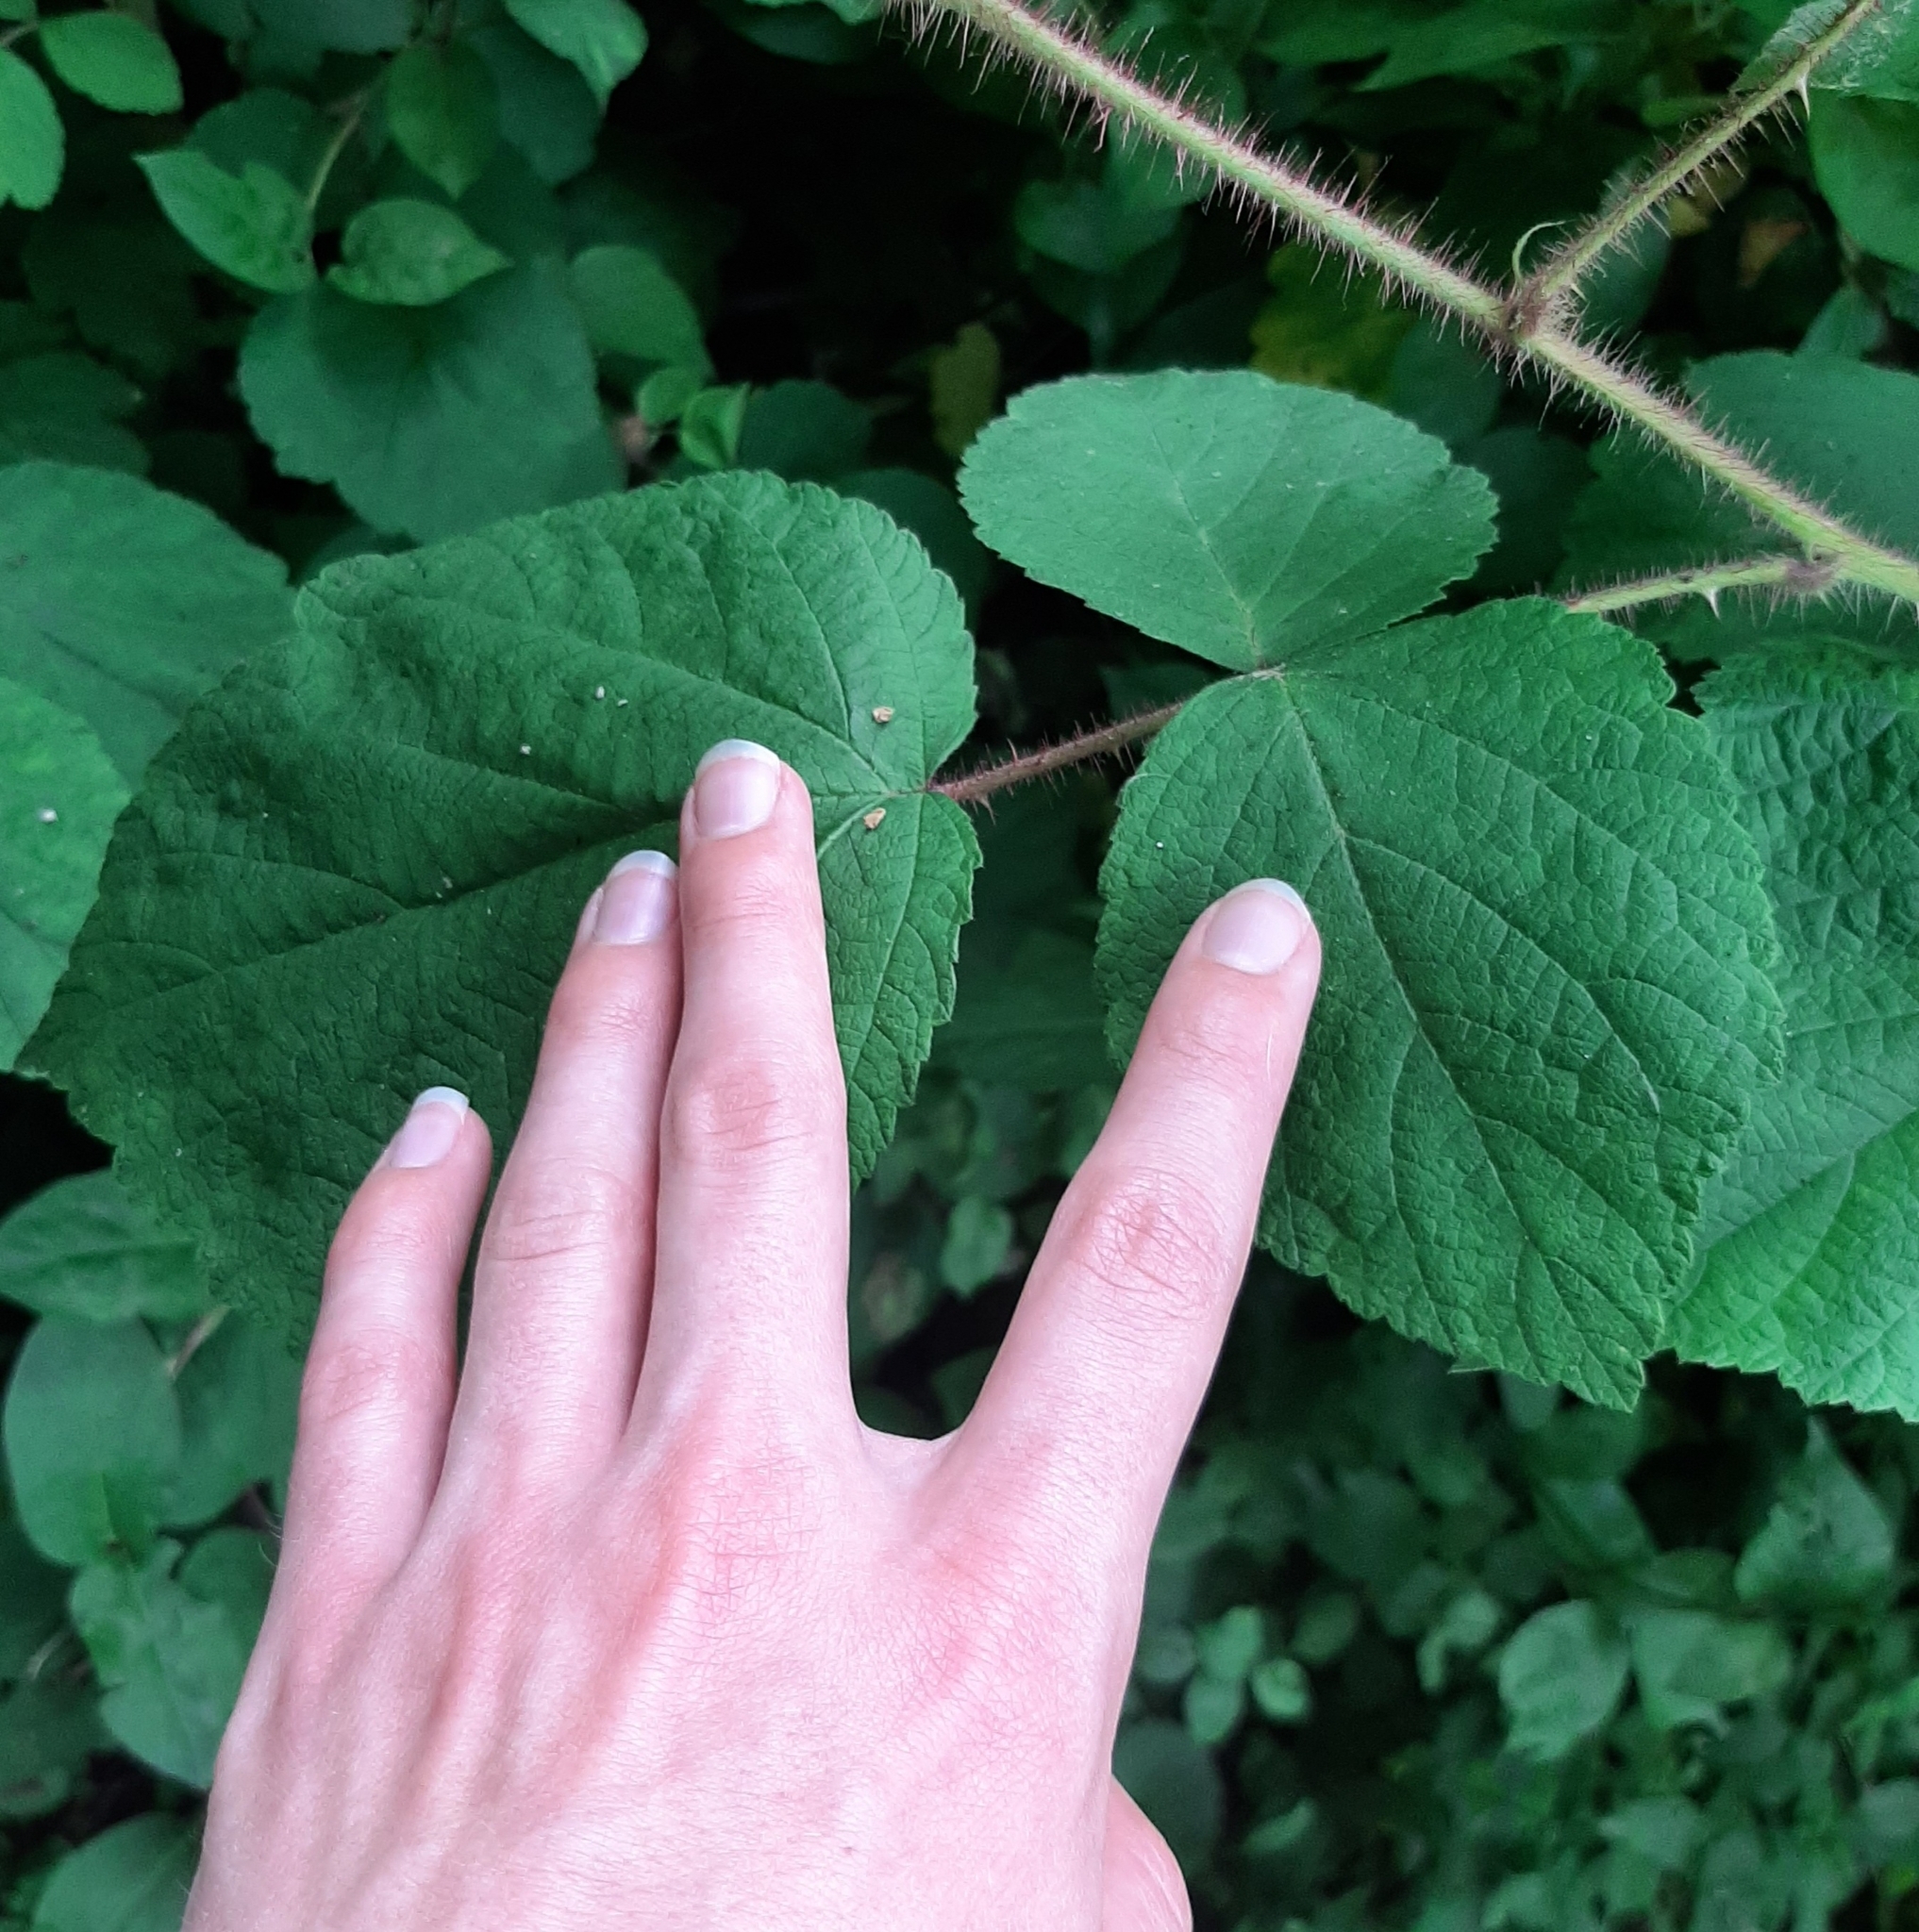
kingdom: Plantae
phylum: Tracheophyta
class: Magnoliopsida
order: Rosales
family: Rosaceae
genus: Rubus
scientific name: Rubus phoenicolasius
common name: Japanese wineberry
